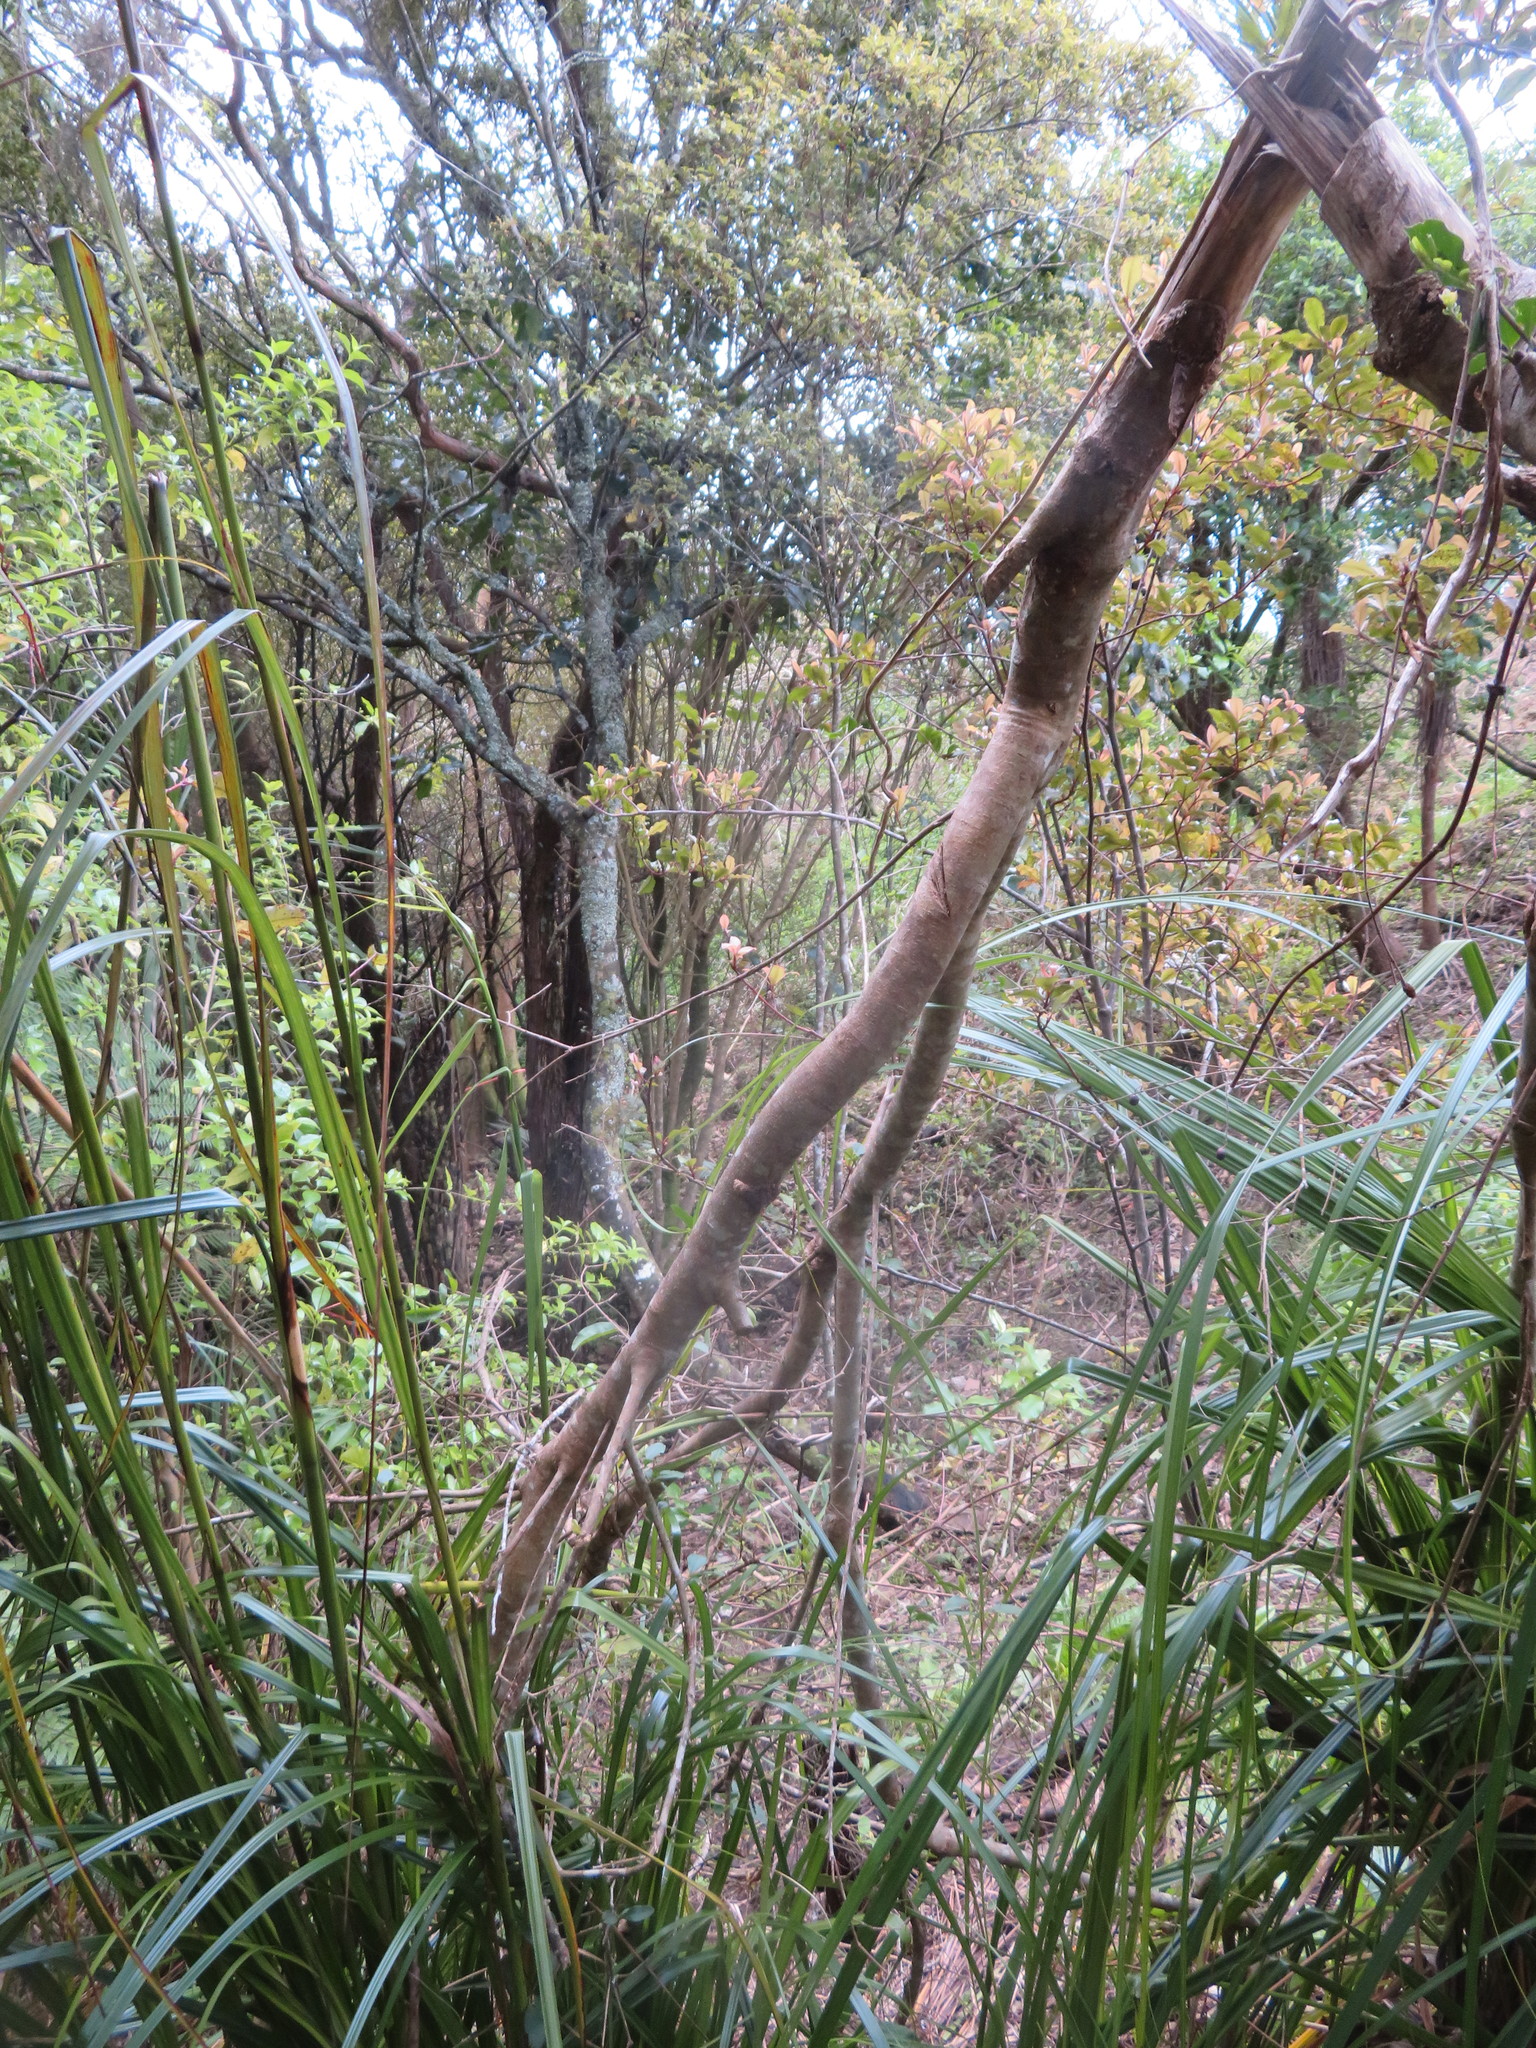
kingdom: Plantae
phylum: Tracheophyta
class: Magnoliopsida
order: Ericales
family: Primulaceae
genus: Myrsine
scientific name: Myrsine australis
